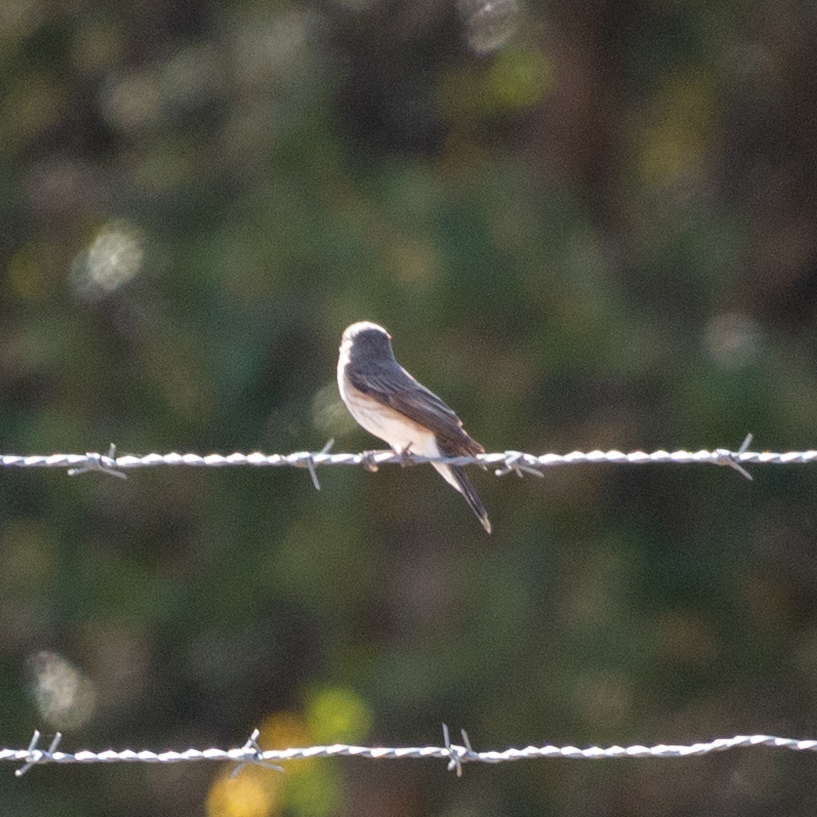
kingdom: Animalia
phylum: Chordata
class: Aves
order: Passeriformes
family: Muscicapidae
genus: Muscicapa
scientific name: Muscicapa striata
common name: Spotted flycatcher
